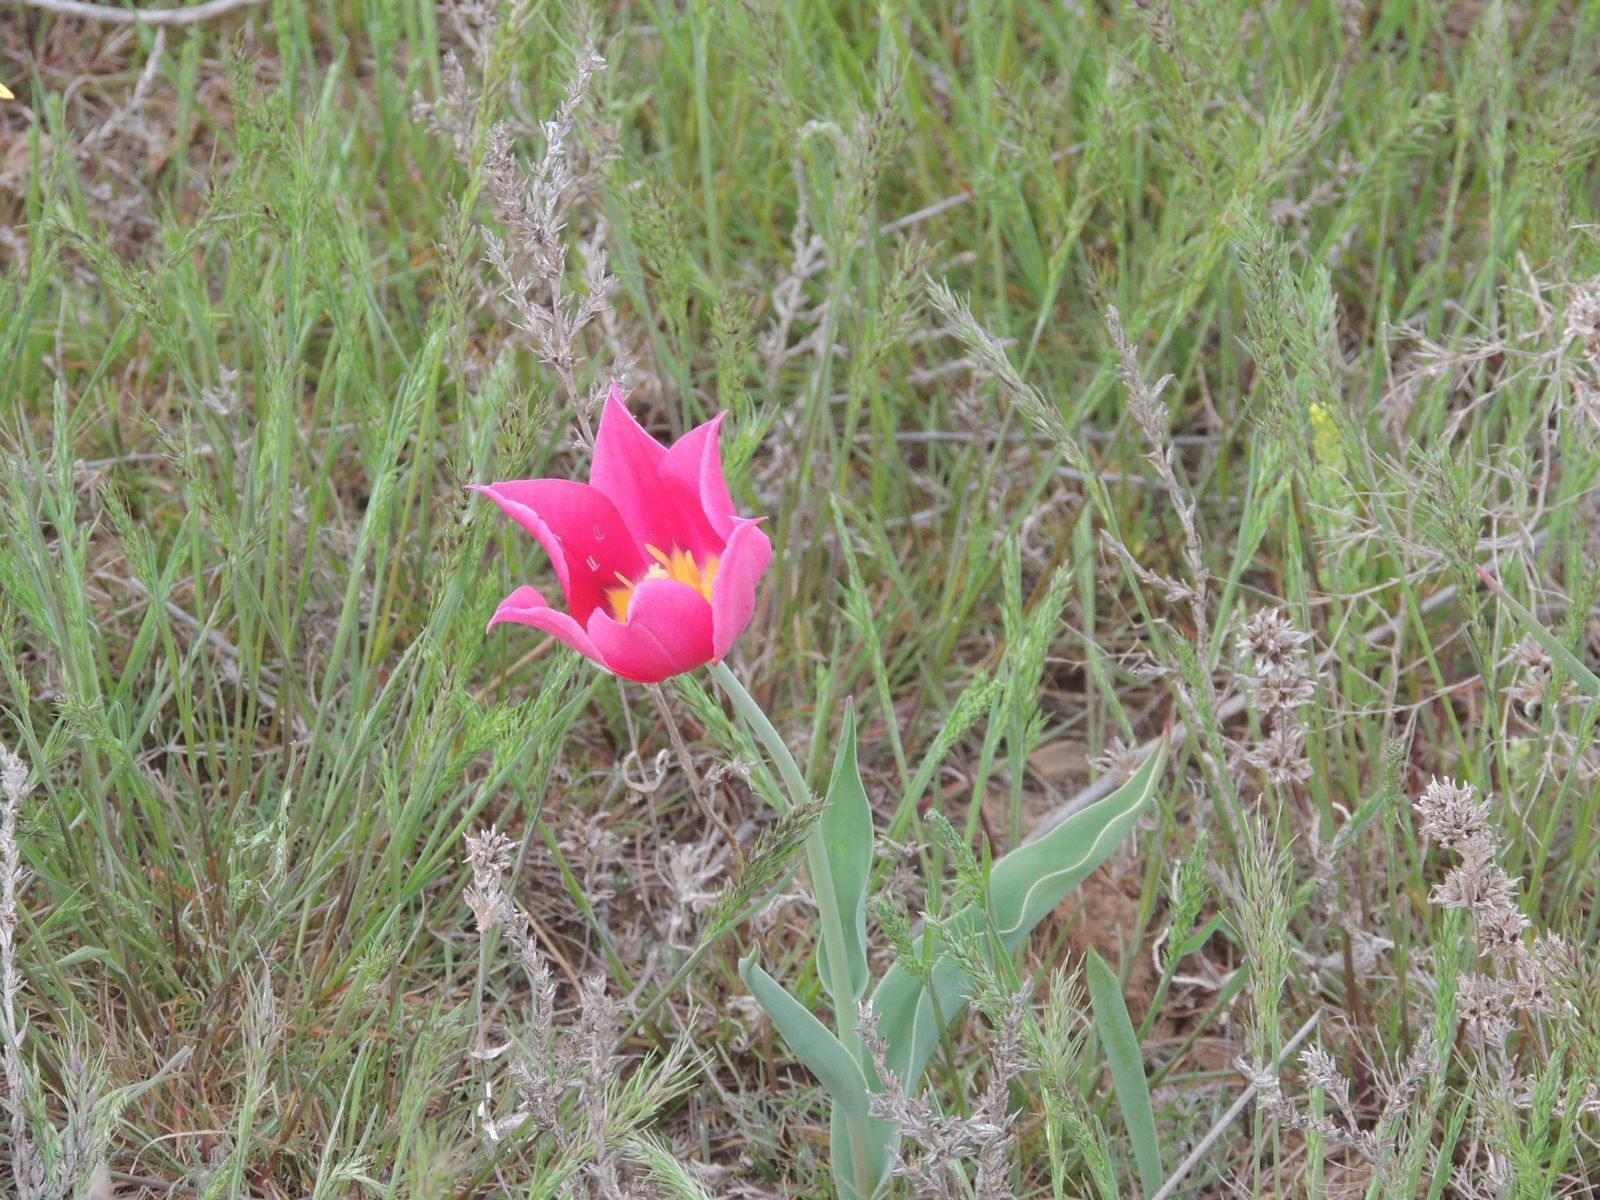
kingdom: Plantae
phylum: Tracheophyta
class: Liliopsida
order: Liliales
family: Liliaceae
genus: Tulipa
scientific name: Tulipa suaveolens
